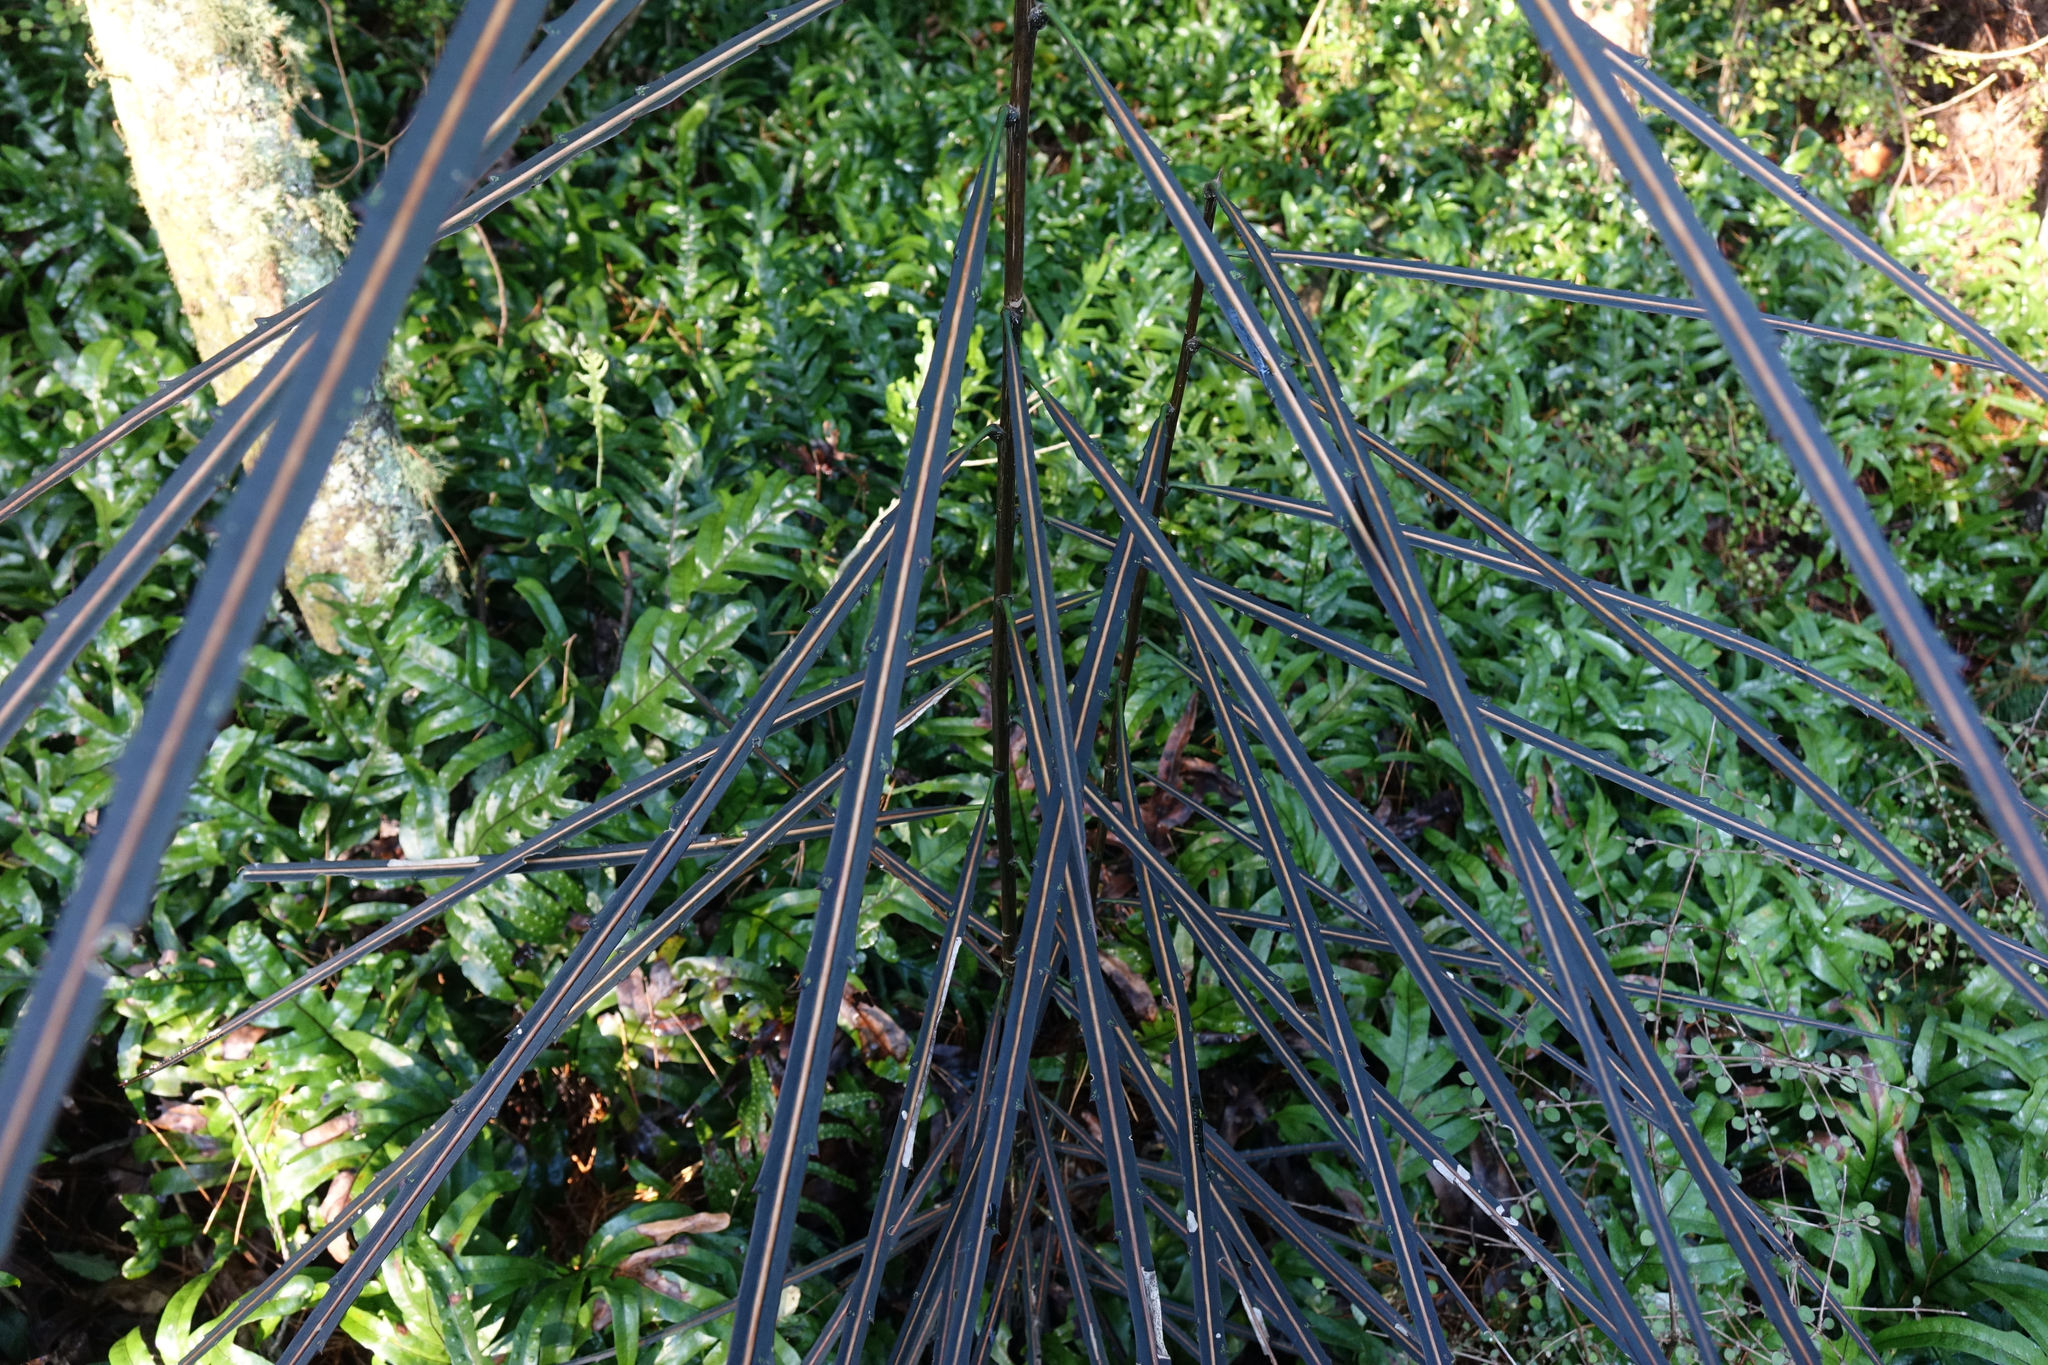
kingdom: Plantae
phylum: Tracheophyta
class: Magnoliopsida
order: Apiales
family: Araliaceae
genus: Pseudopanax
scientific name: Pseudopanax crassifolius
